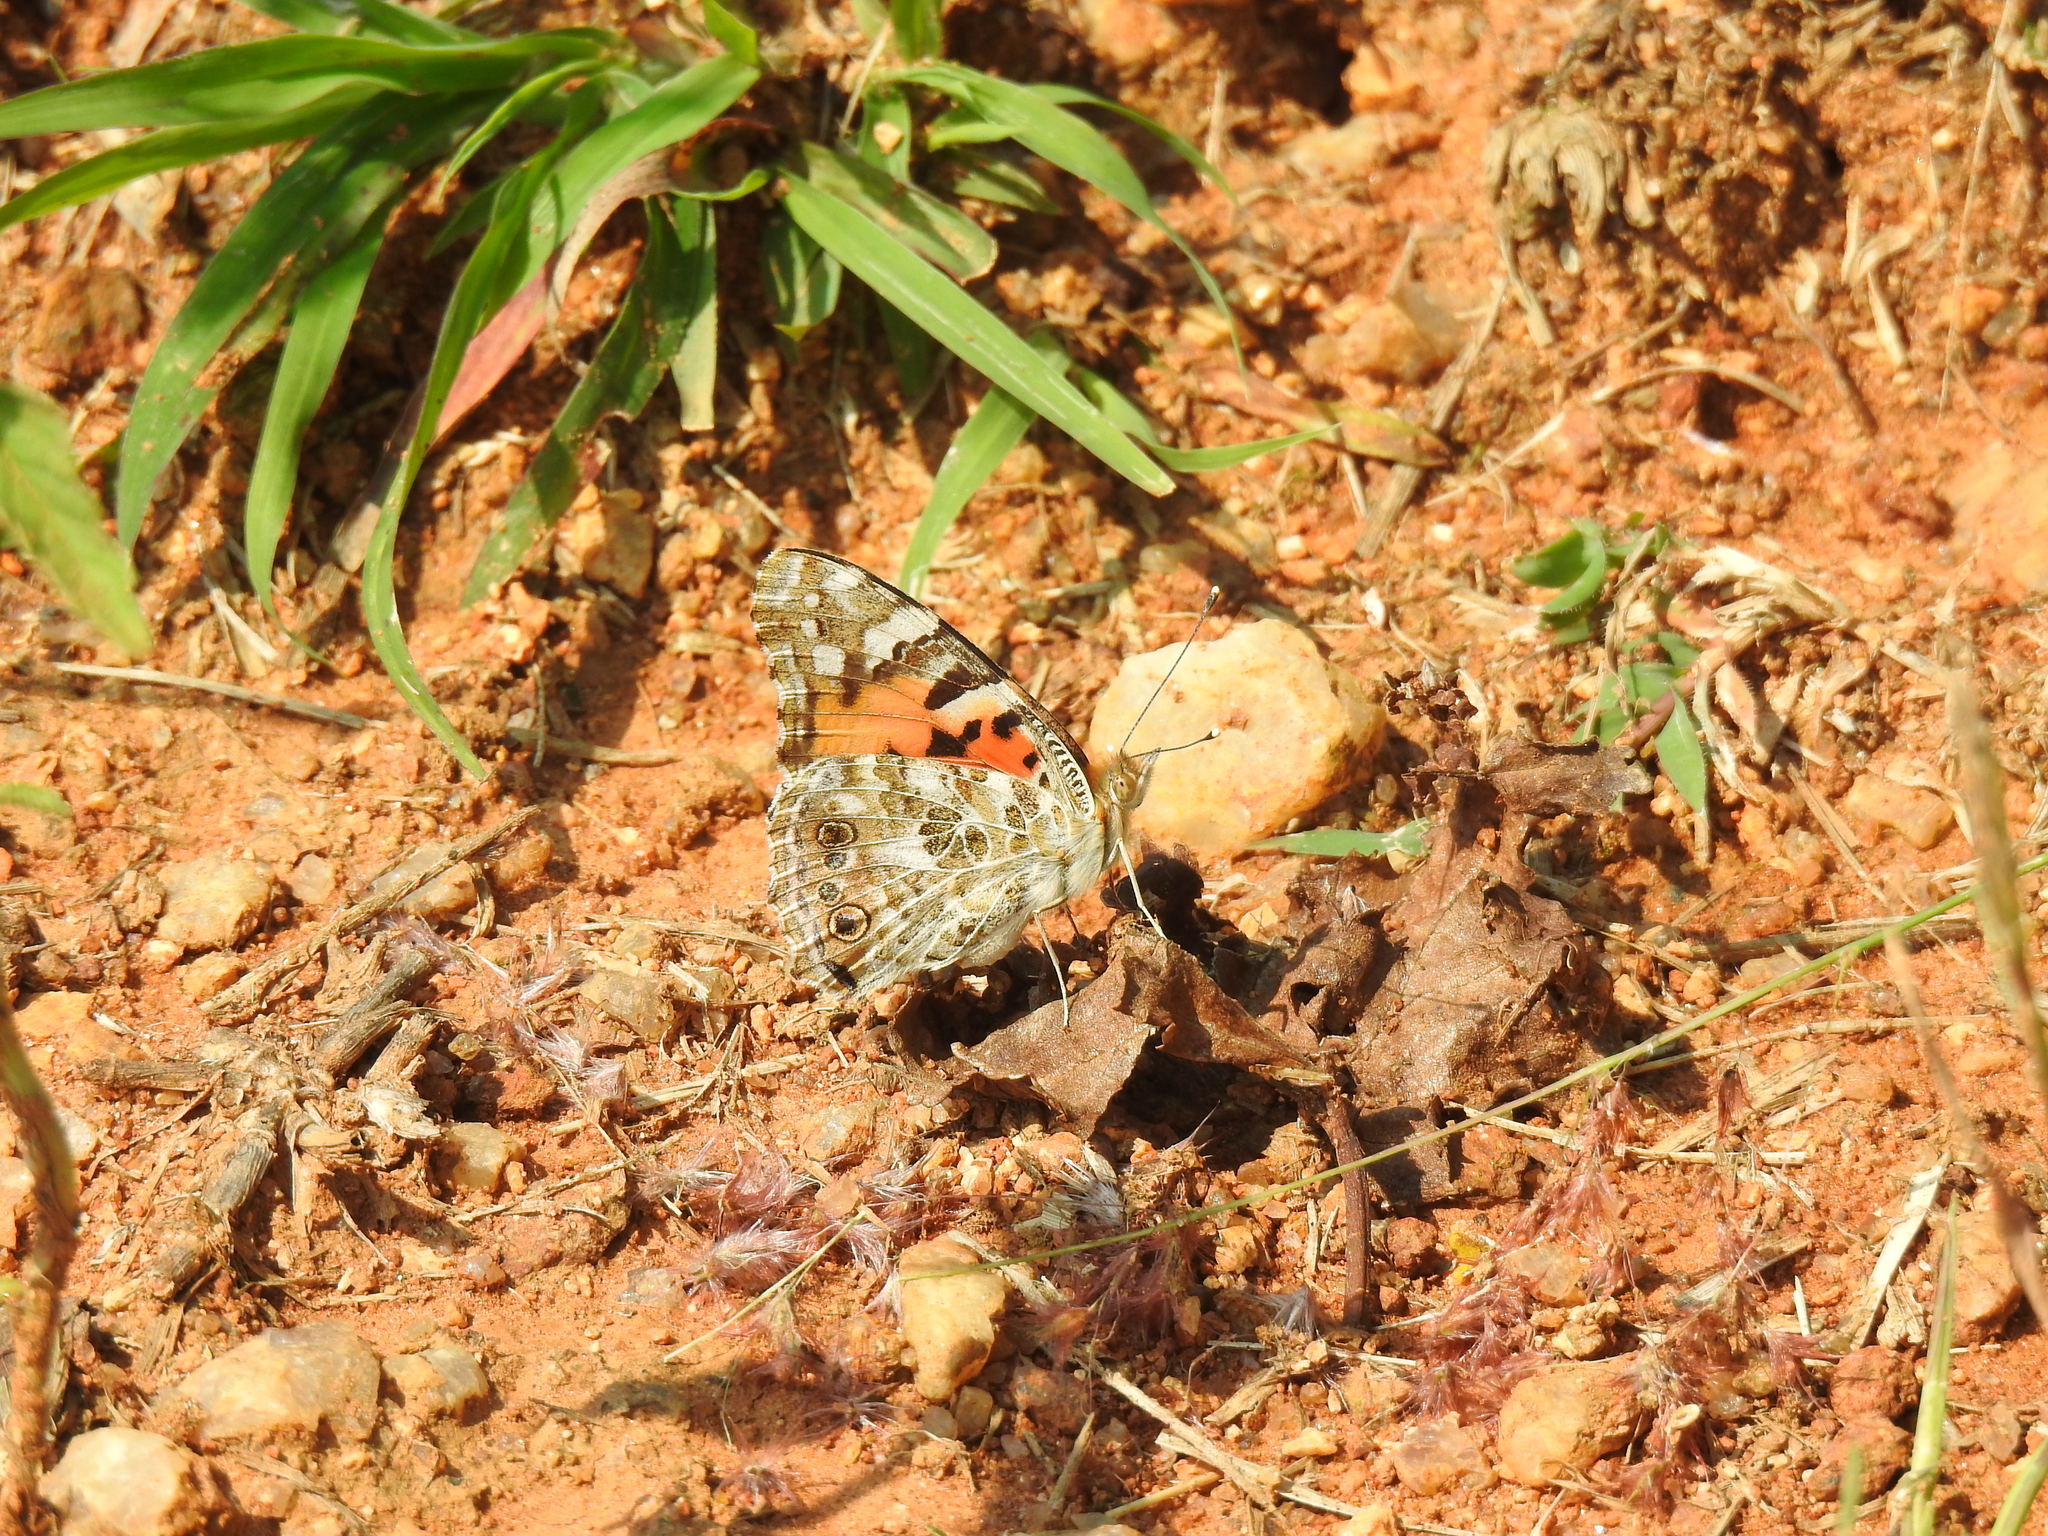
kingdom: Animalia
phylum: Arthropoda
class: Insecta
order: Lepidoptera
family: Nymphalidae
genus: Vanessa
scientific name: Vanessa cardui
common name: Painted lady
